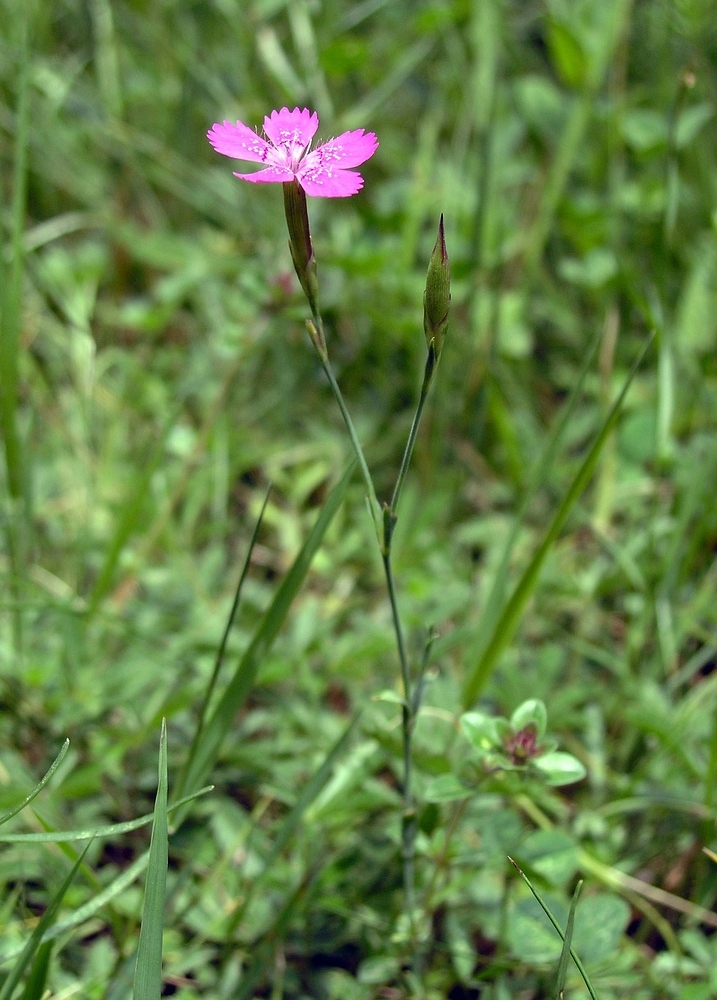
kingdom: Plantae
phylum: Tracheophyta
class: Magnoliopsida
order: Caryophyllales
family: Caryophyllaceae
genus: Dianthus
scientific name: Dianthus deltoides
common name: Maiden pink
